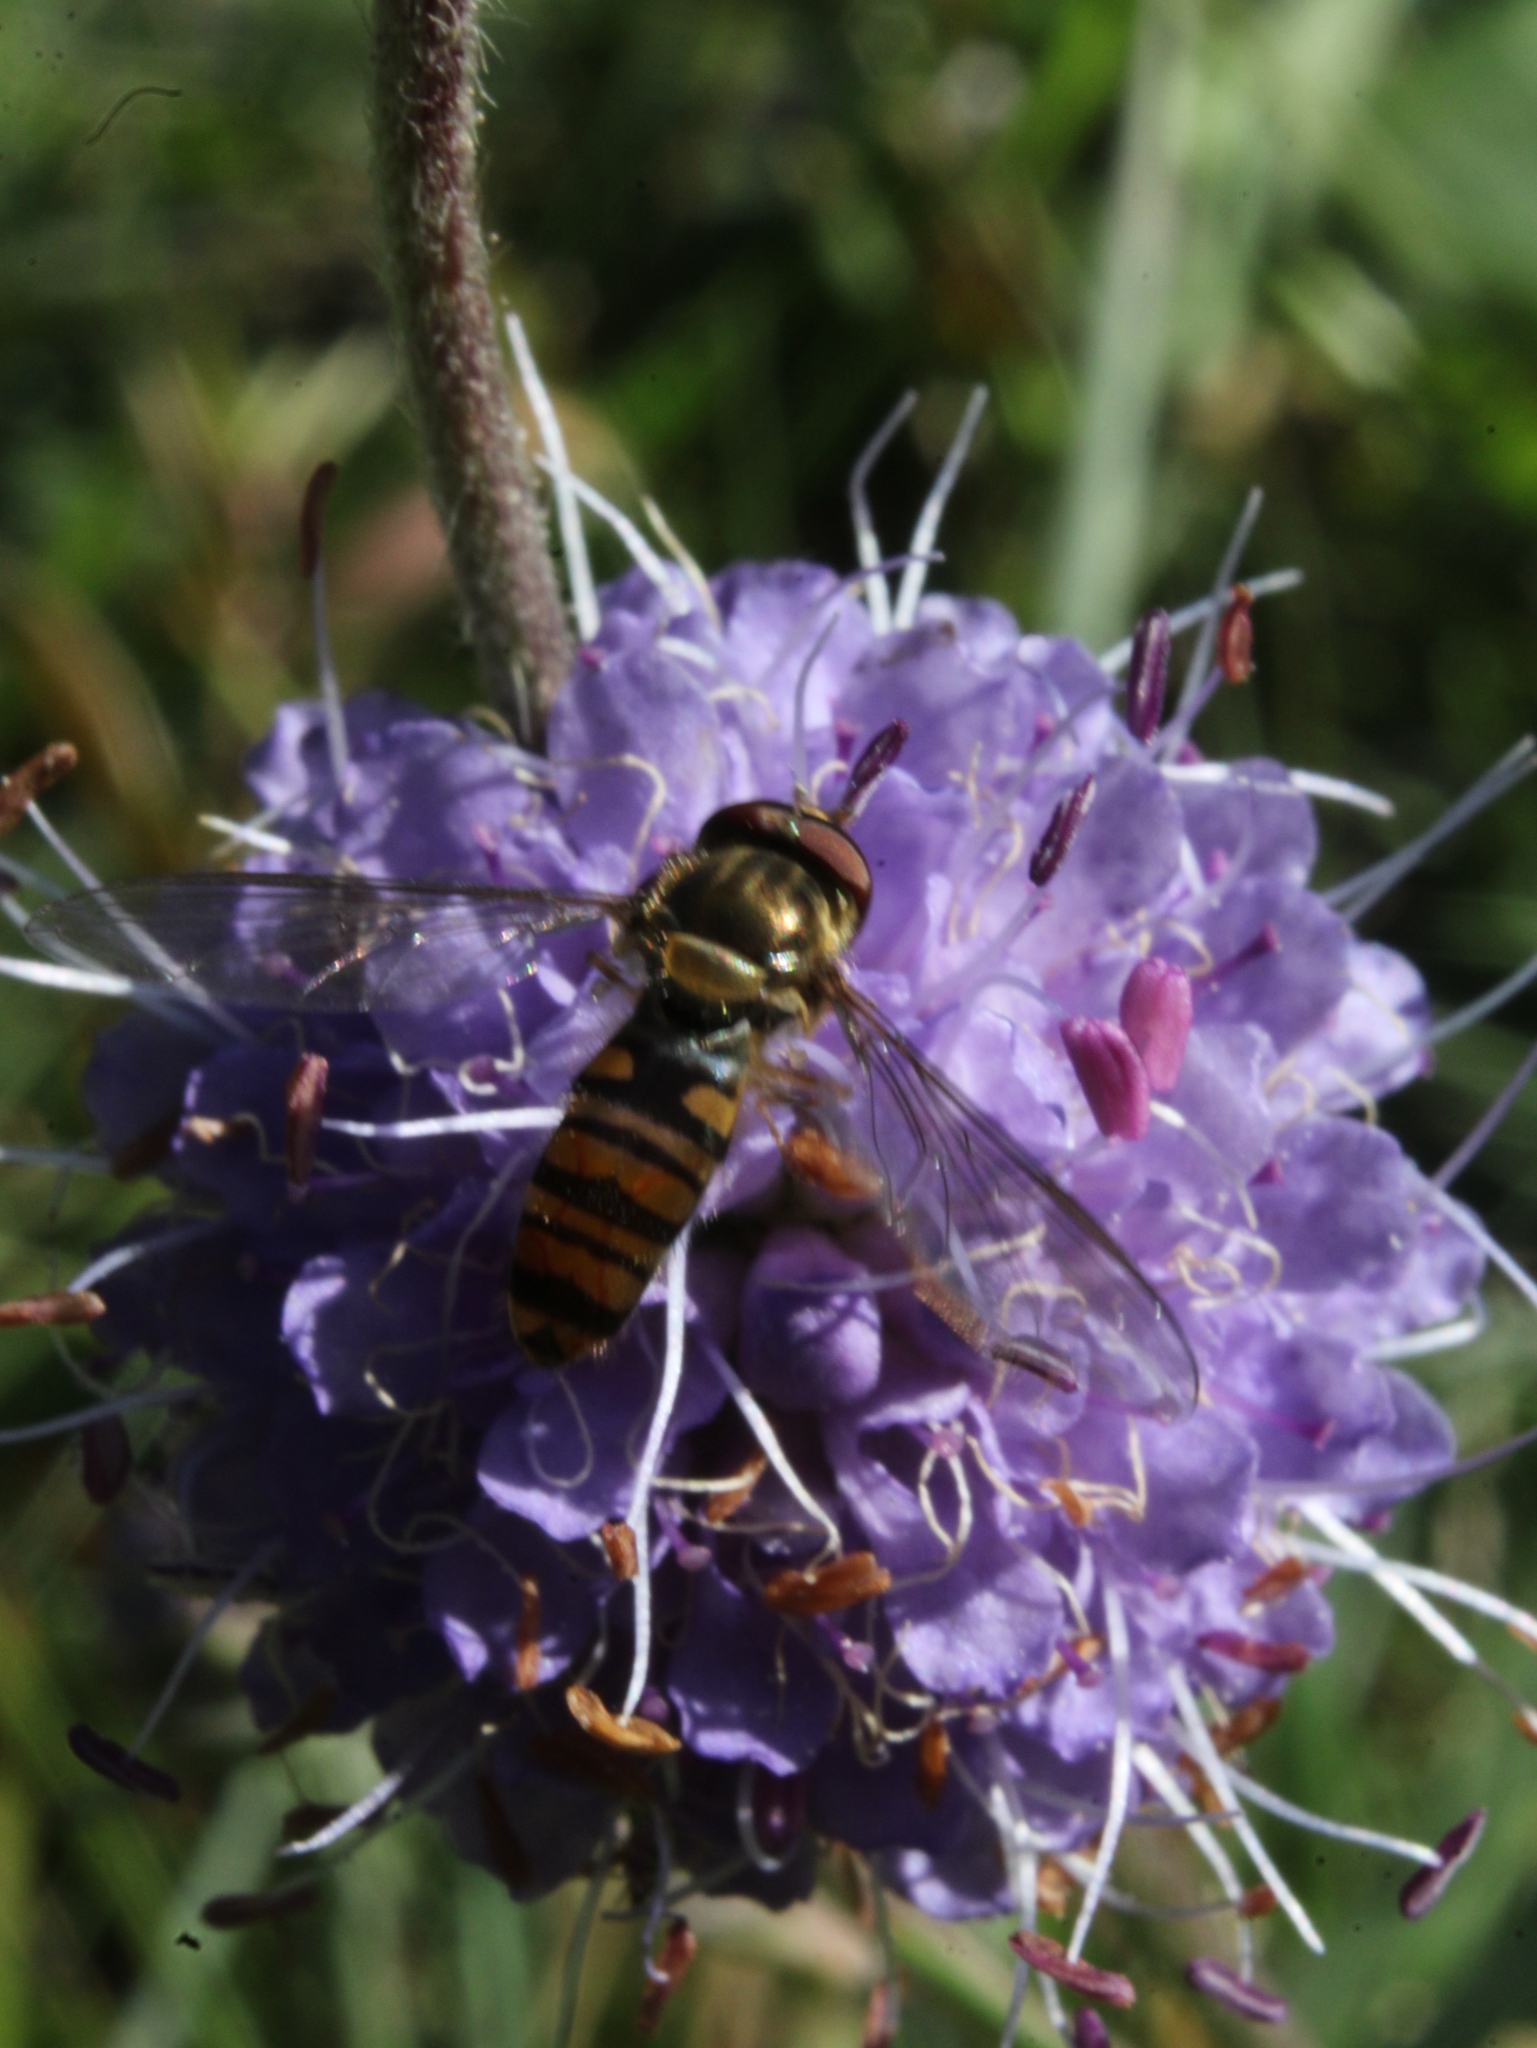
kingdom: Animalia
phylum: Arthropoda
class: Insecta
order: Diptera
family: Syrphidae
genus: Episyrphus
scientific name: Episyrphus balteatus
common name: Marmalade hoverfly
